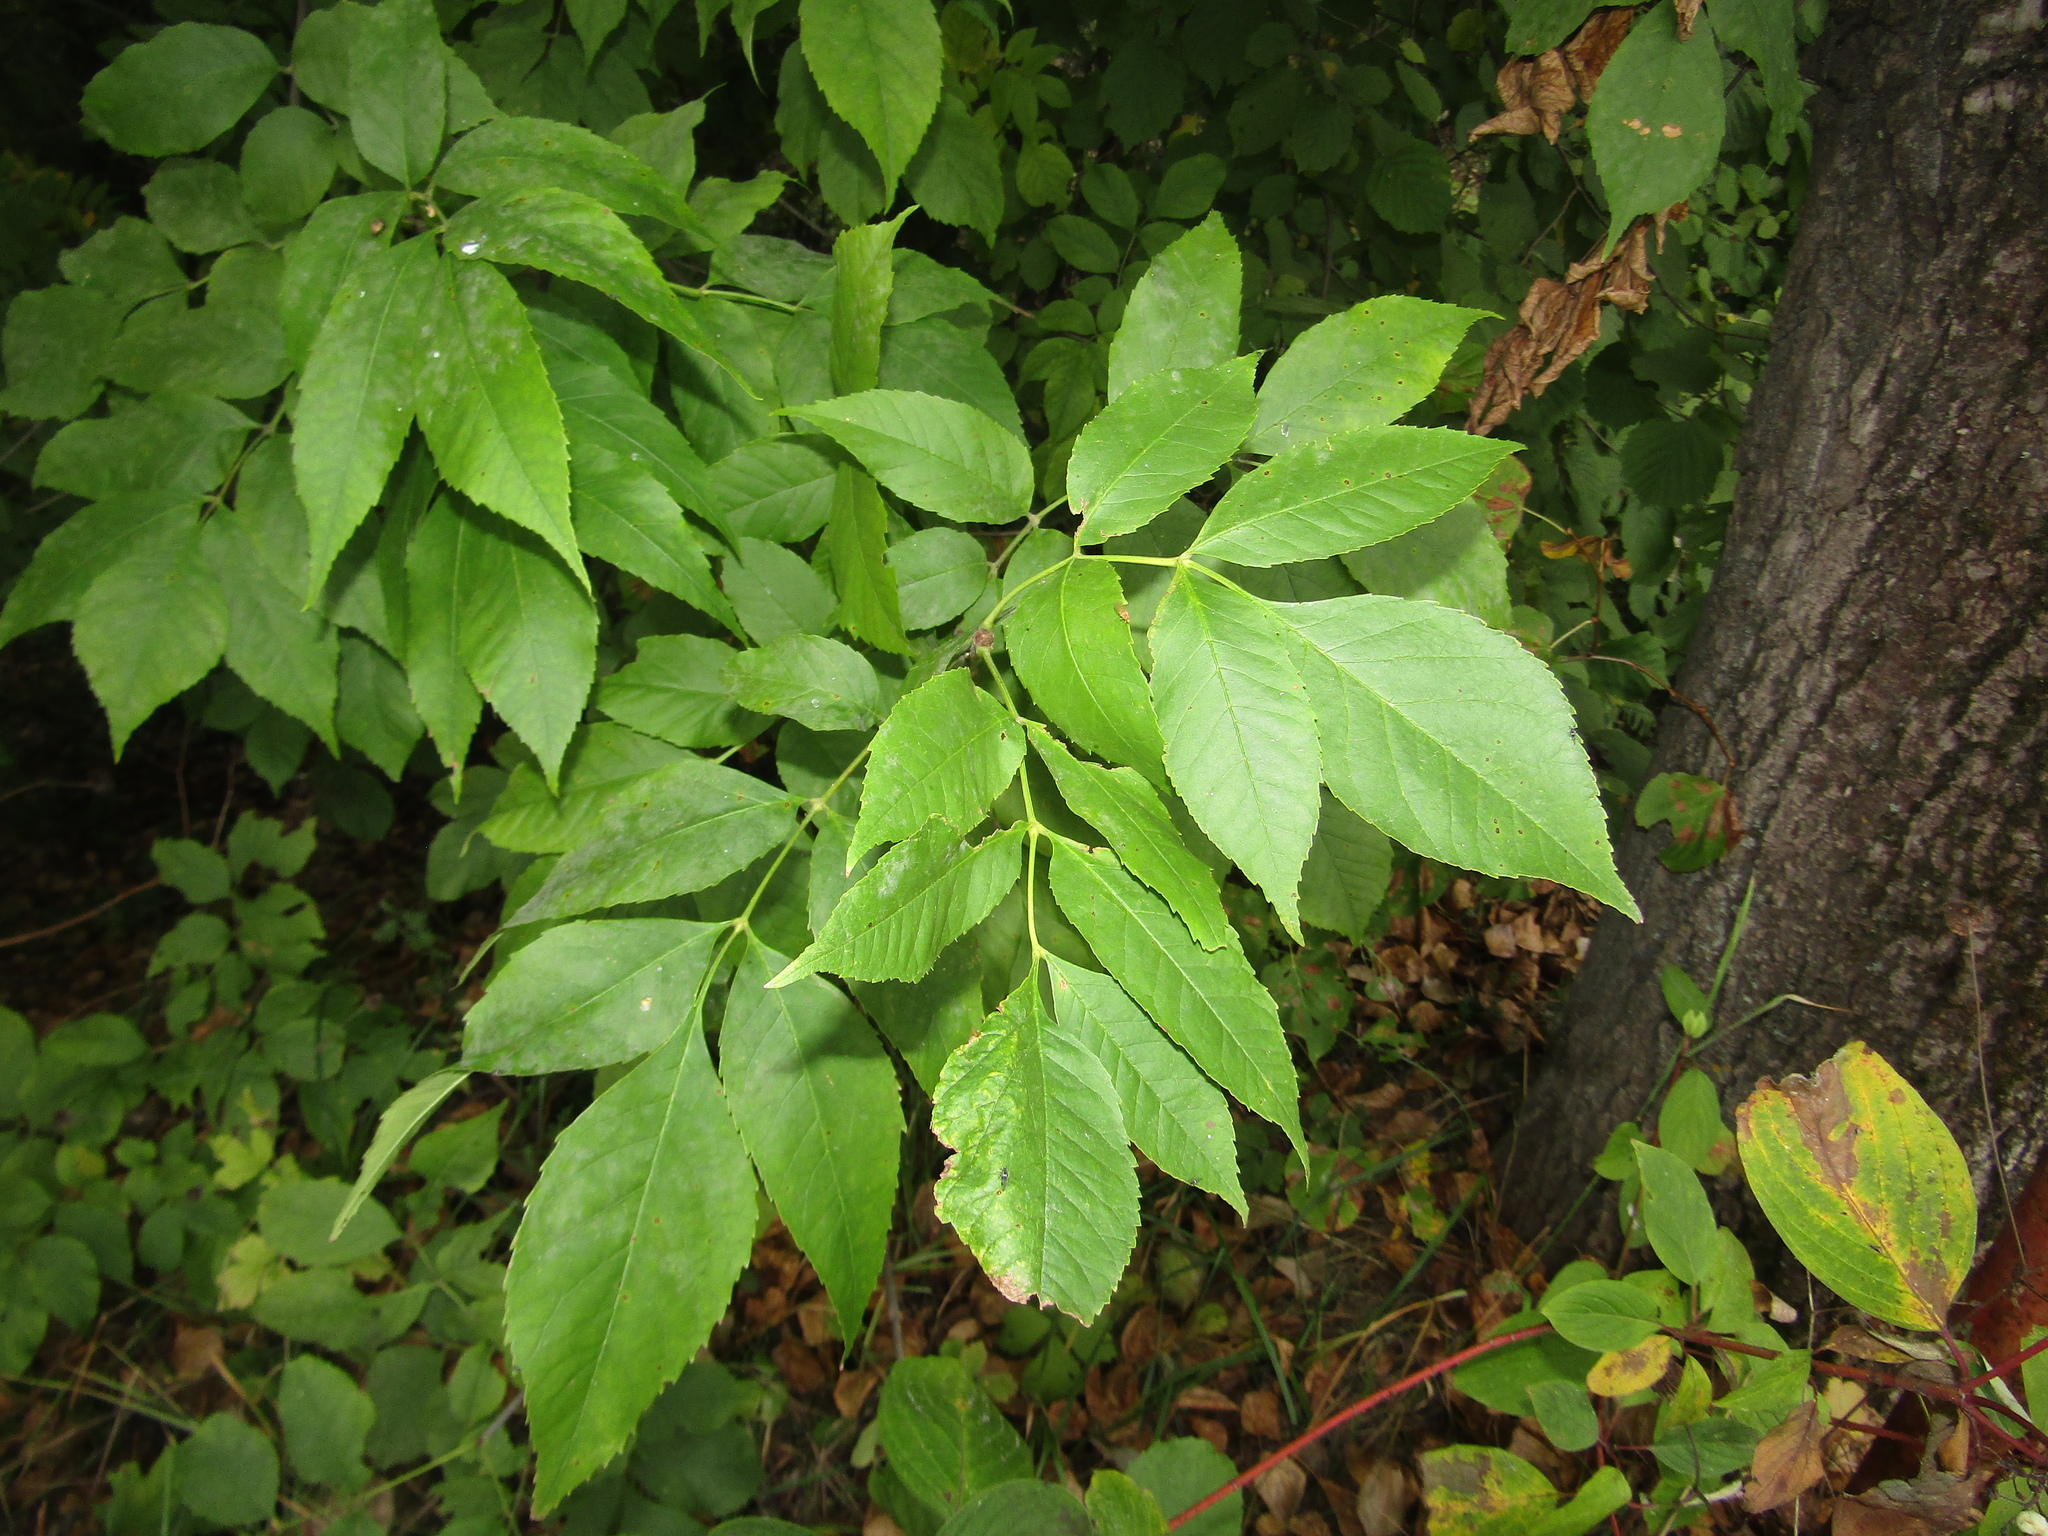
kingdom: Plantae
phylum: Tracheophyta
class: Magnoliopsida
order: Lamiales
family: Oleaceae
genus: Fraxinus
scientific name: Fraxinus pennsylvanica
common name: Green ash
